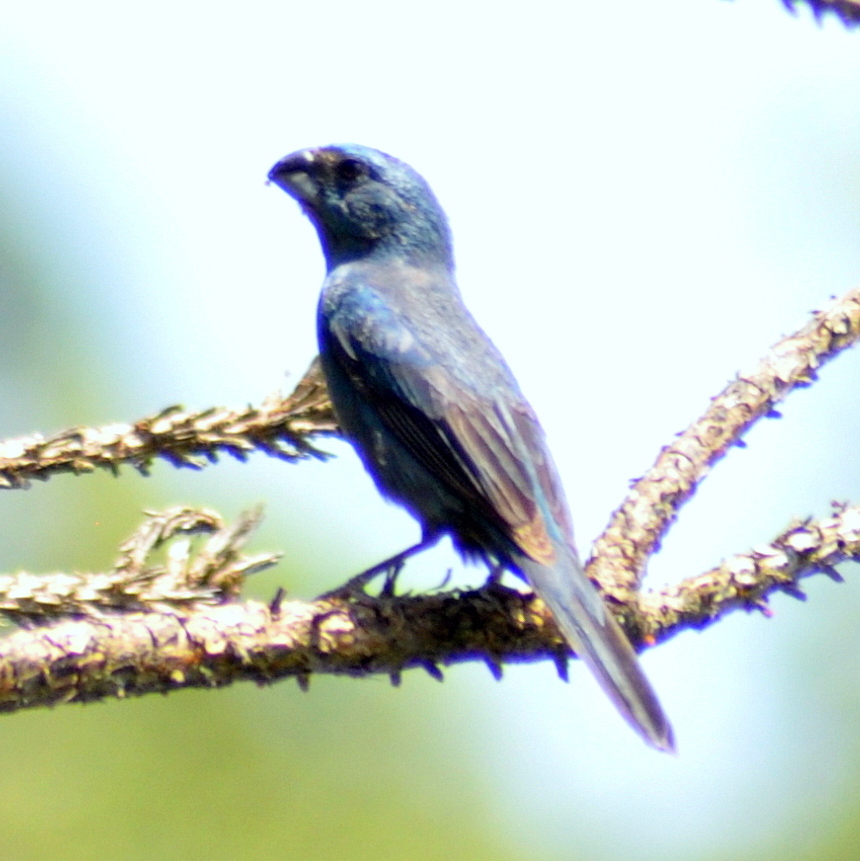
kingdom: Animalia
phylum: Chordata
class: Aves
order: Passeriformes
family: Cardinalidae
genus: Cyanoloxia
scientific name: Cyanoloxia glaucocaerulea
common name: Glaucous-blue grosbeak
